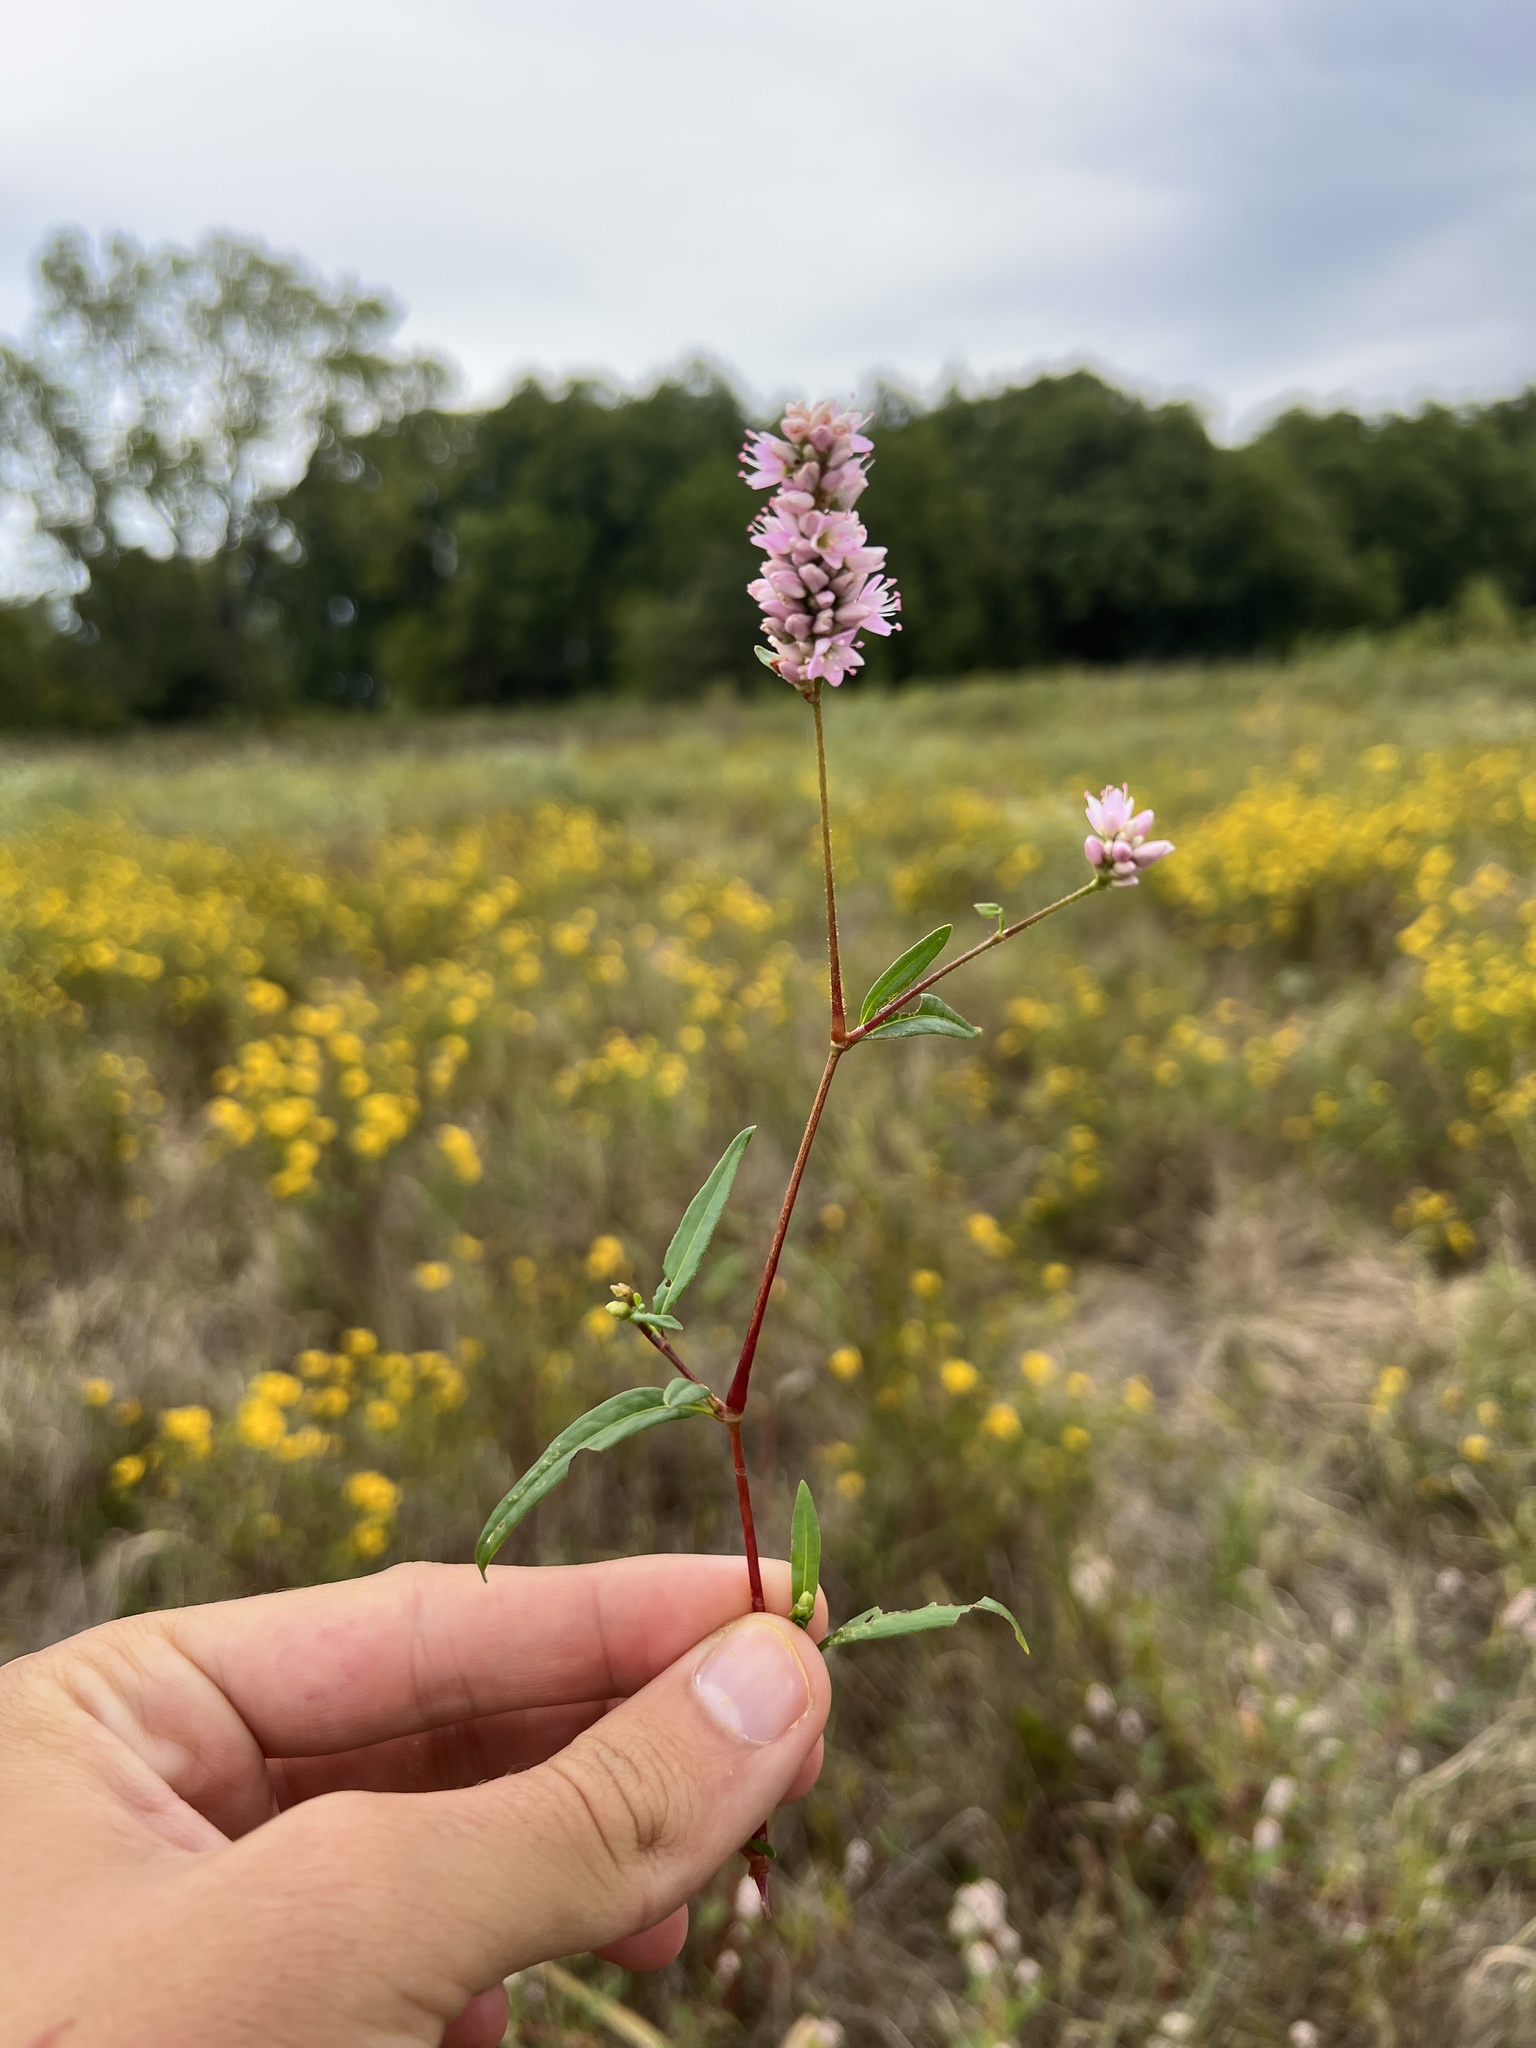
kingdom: Plantae
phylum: Tracheophyta
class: Magnoliopsida
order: Caryophyllales
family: Polygonaceae
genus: Persicaria
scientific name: Persicaria bicornis
